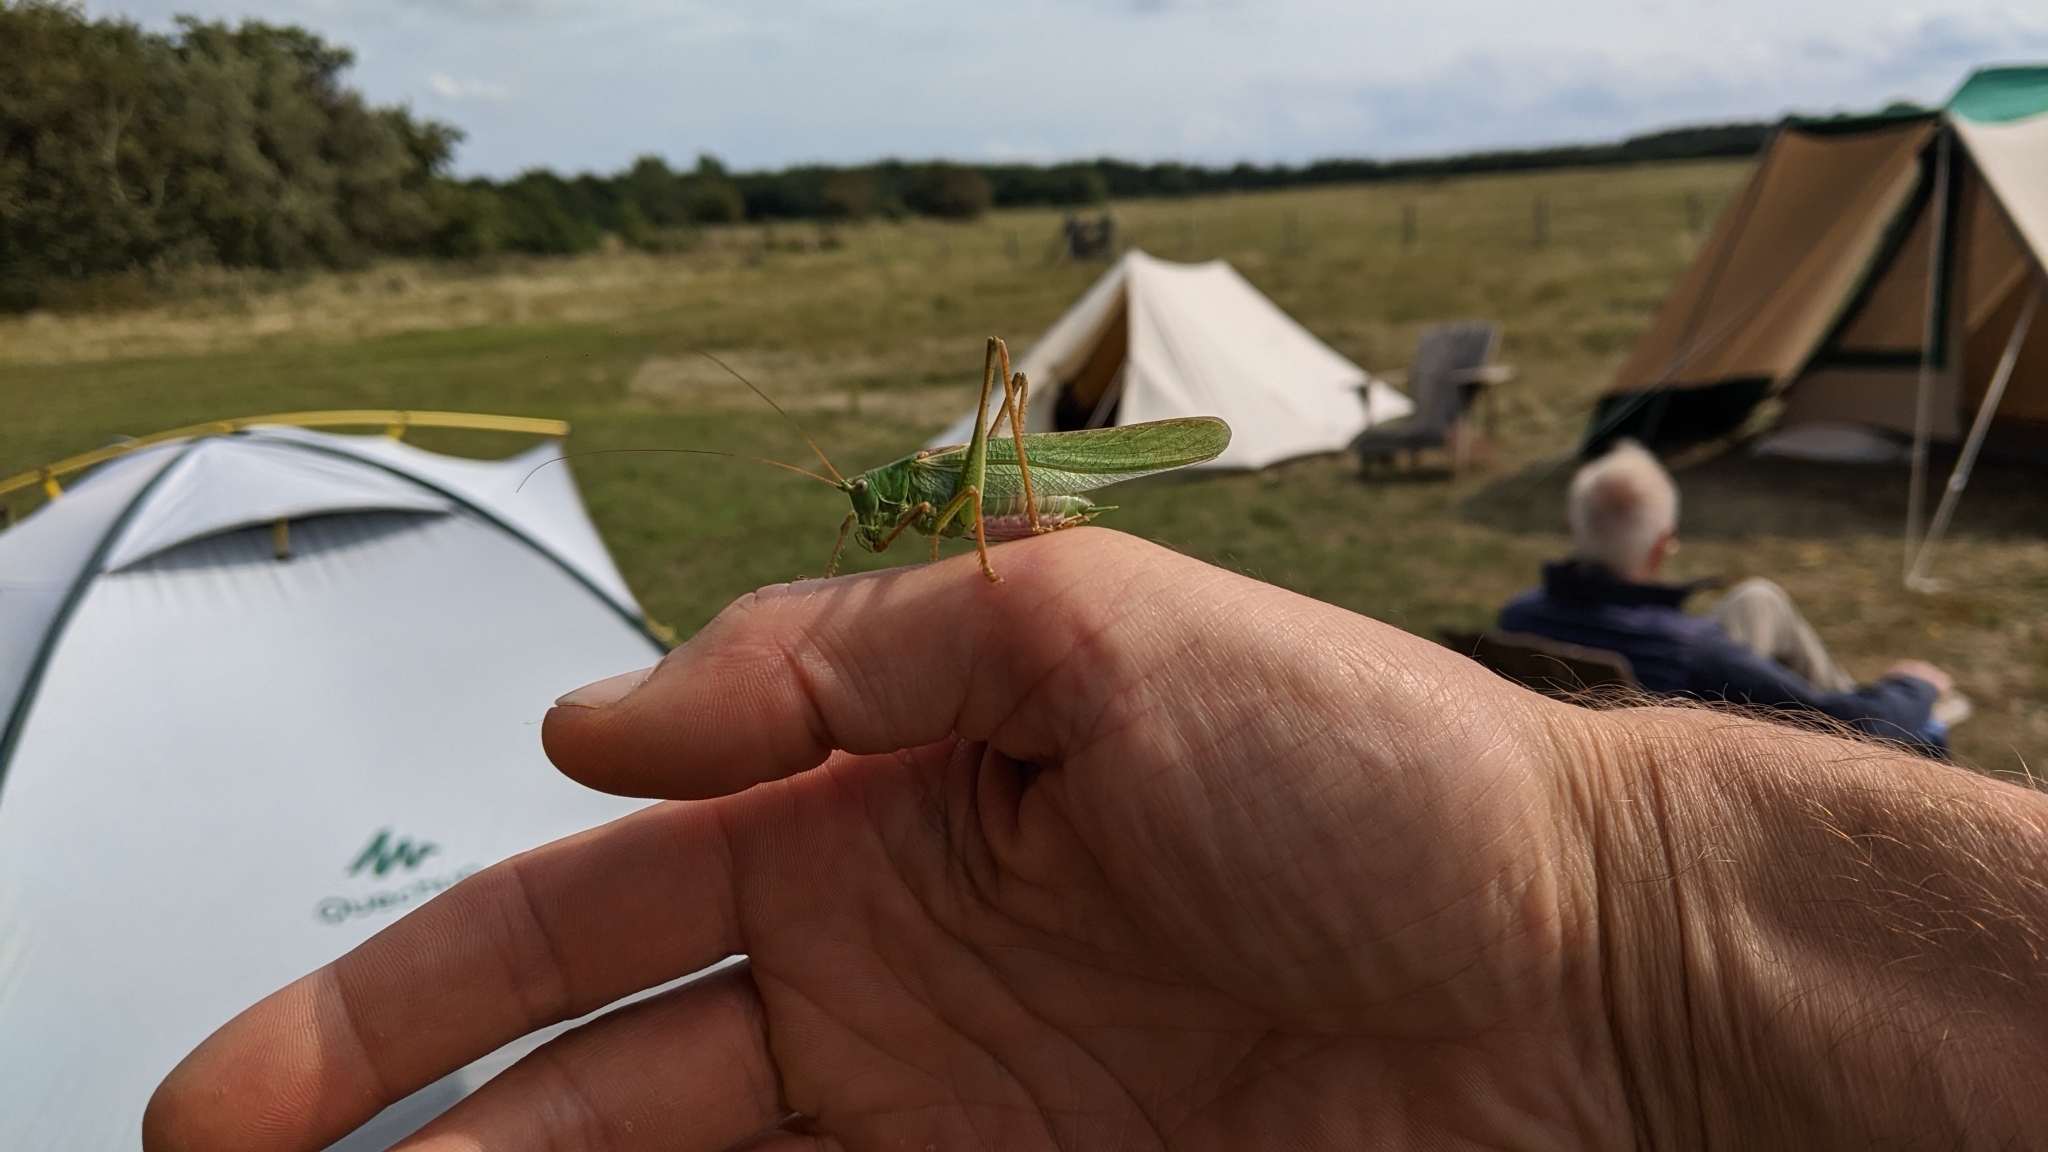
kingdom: Animalia
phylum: Arthropoda
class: Insecta
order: Orthoptera
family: Tettigoniidae
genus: Tettigonia
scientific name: Tettigonia viridissima
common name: Great green bush-cricket
